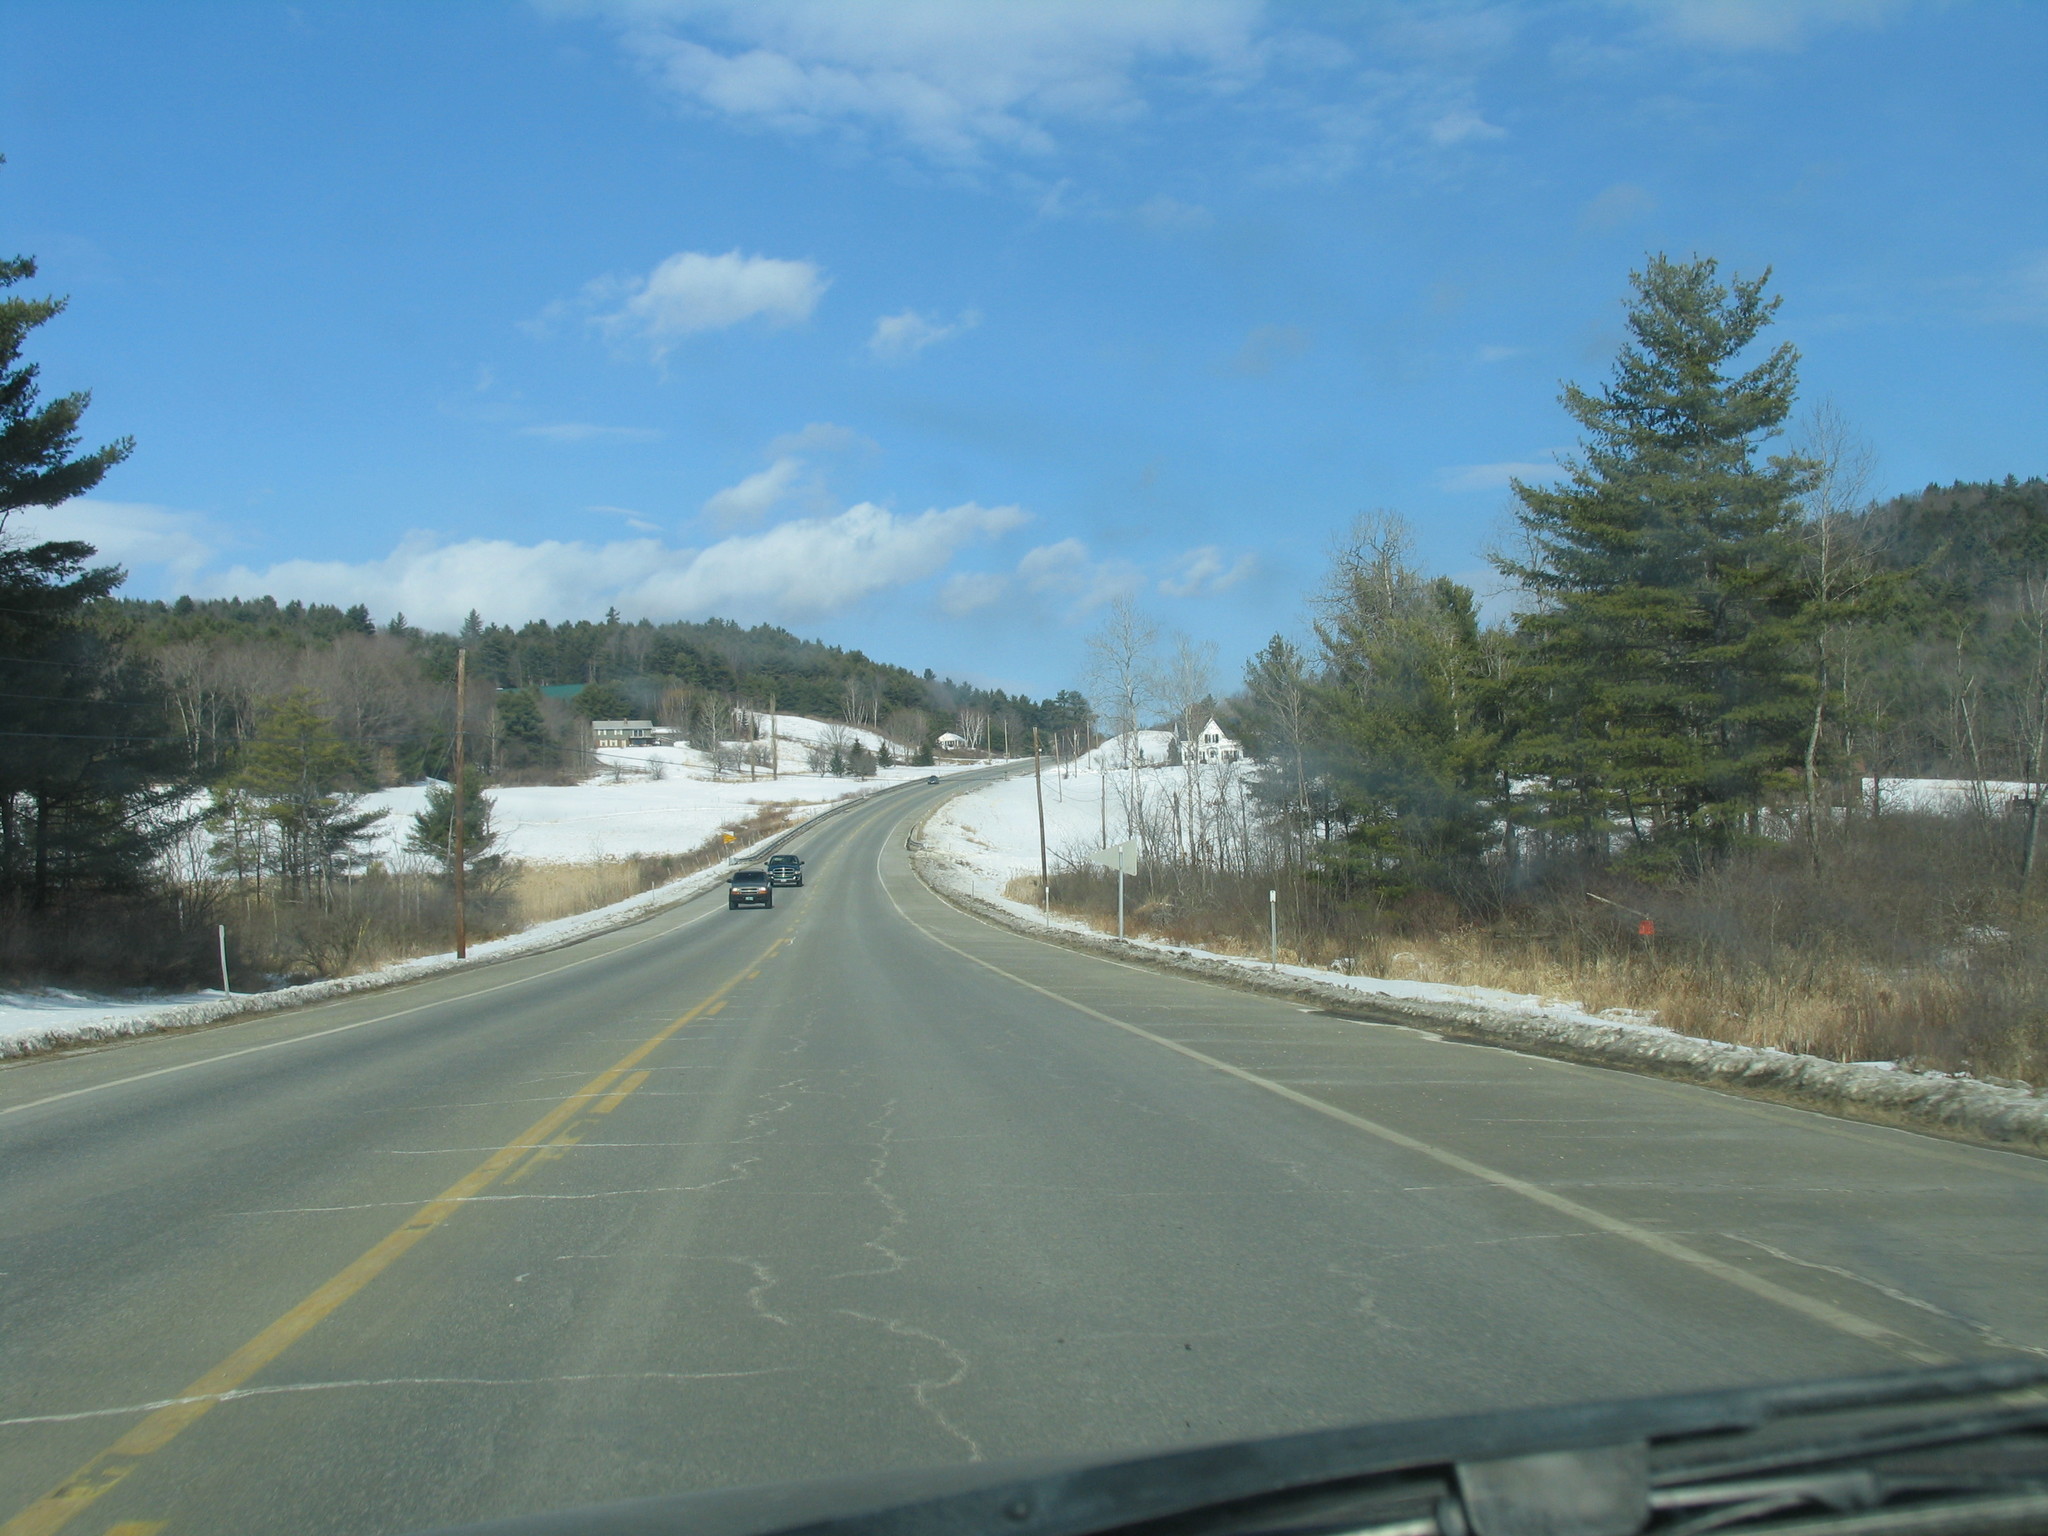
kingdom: Plantae
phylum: Tracheophyta
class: Pinopsida
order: Pinales
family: Pinaceae
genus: Pinus
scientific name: Pinus strobus
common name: Weymouth pine
